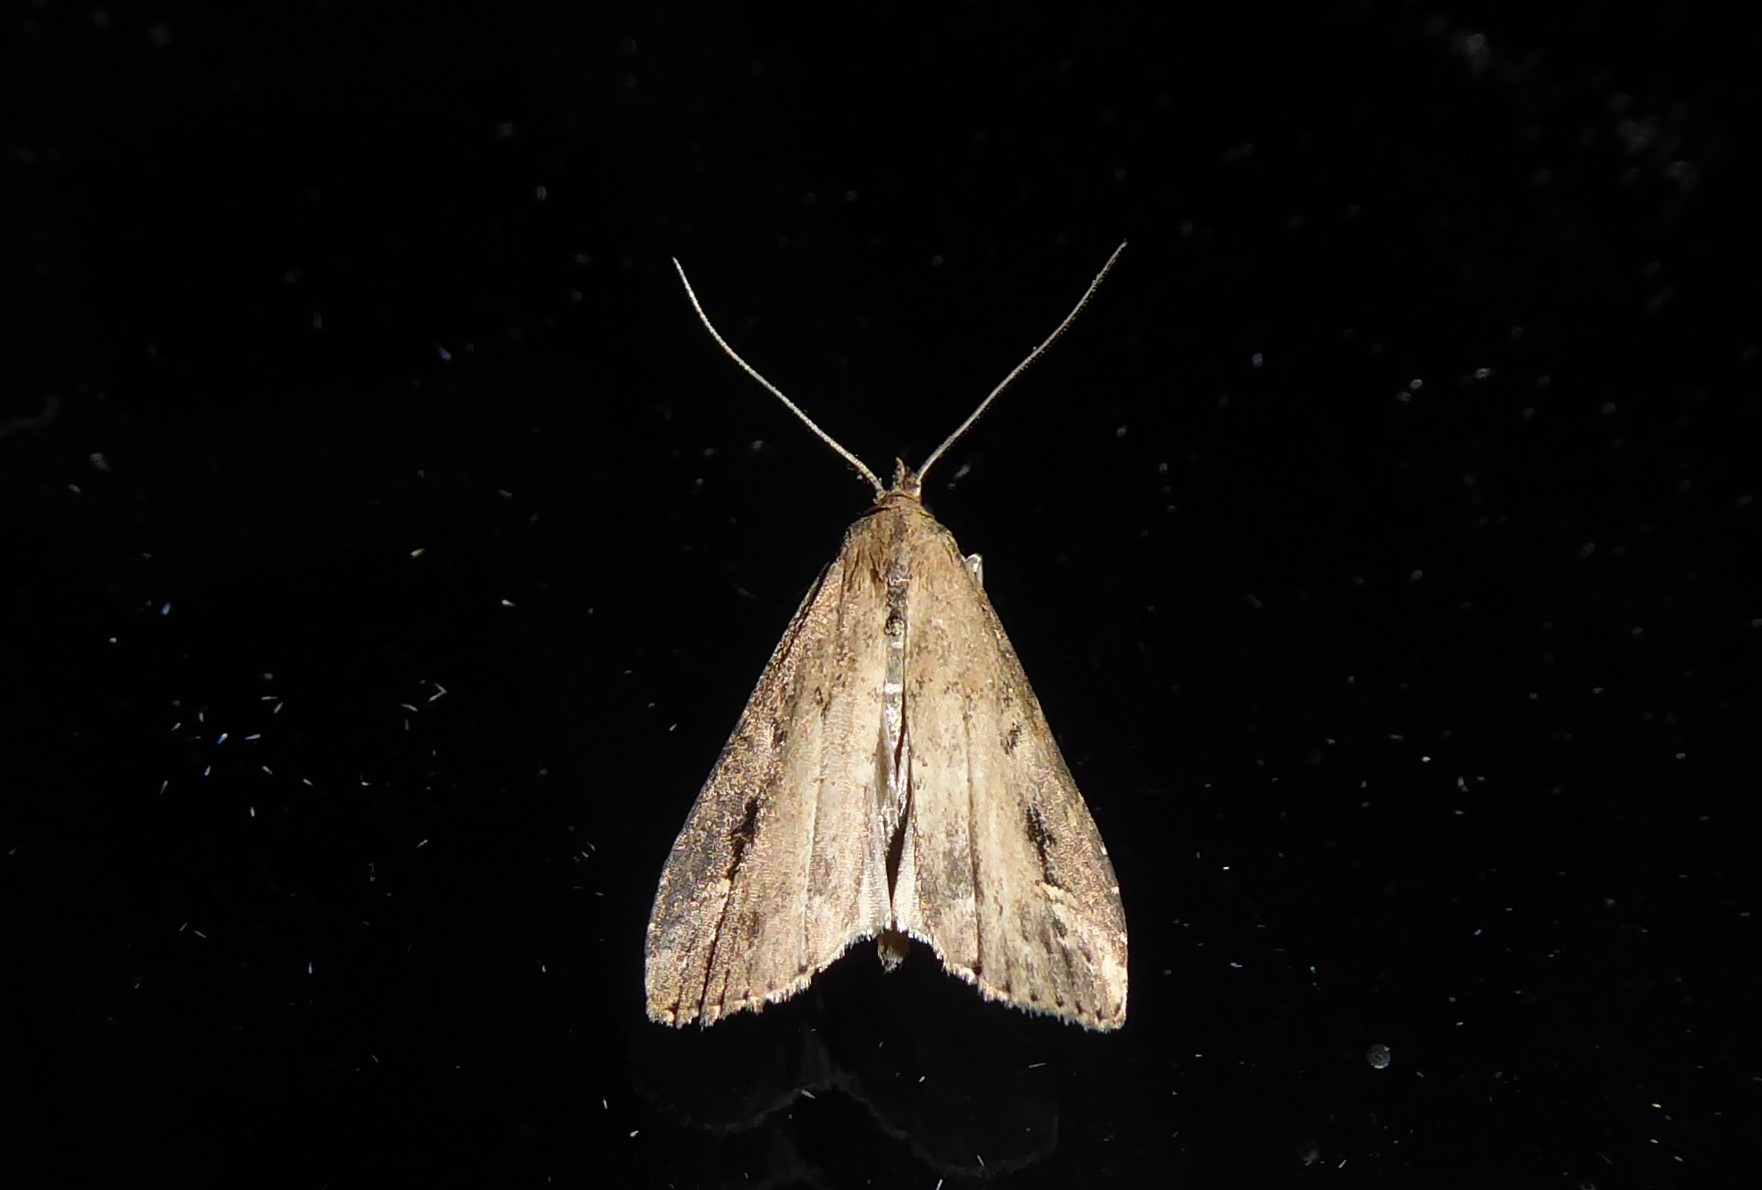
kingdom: Animalia
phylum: Arthropoda
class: Insecta
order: Lepidoptera
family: Erebidae
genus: Schrankia
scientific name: Schrankia costaestrigalis
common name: Pinion-streaked snout
